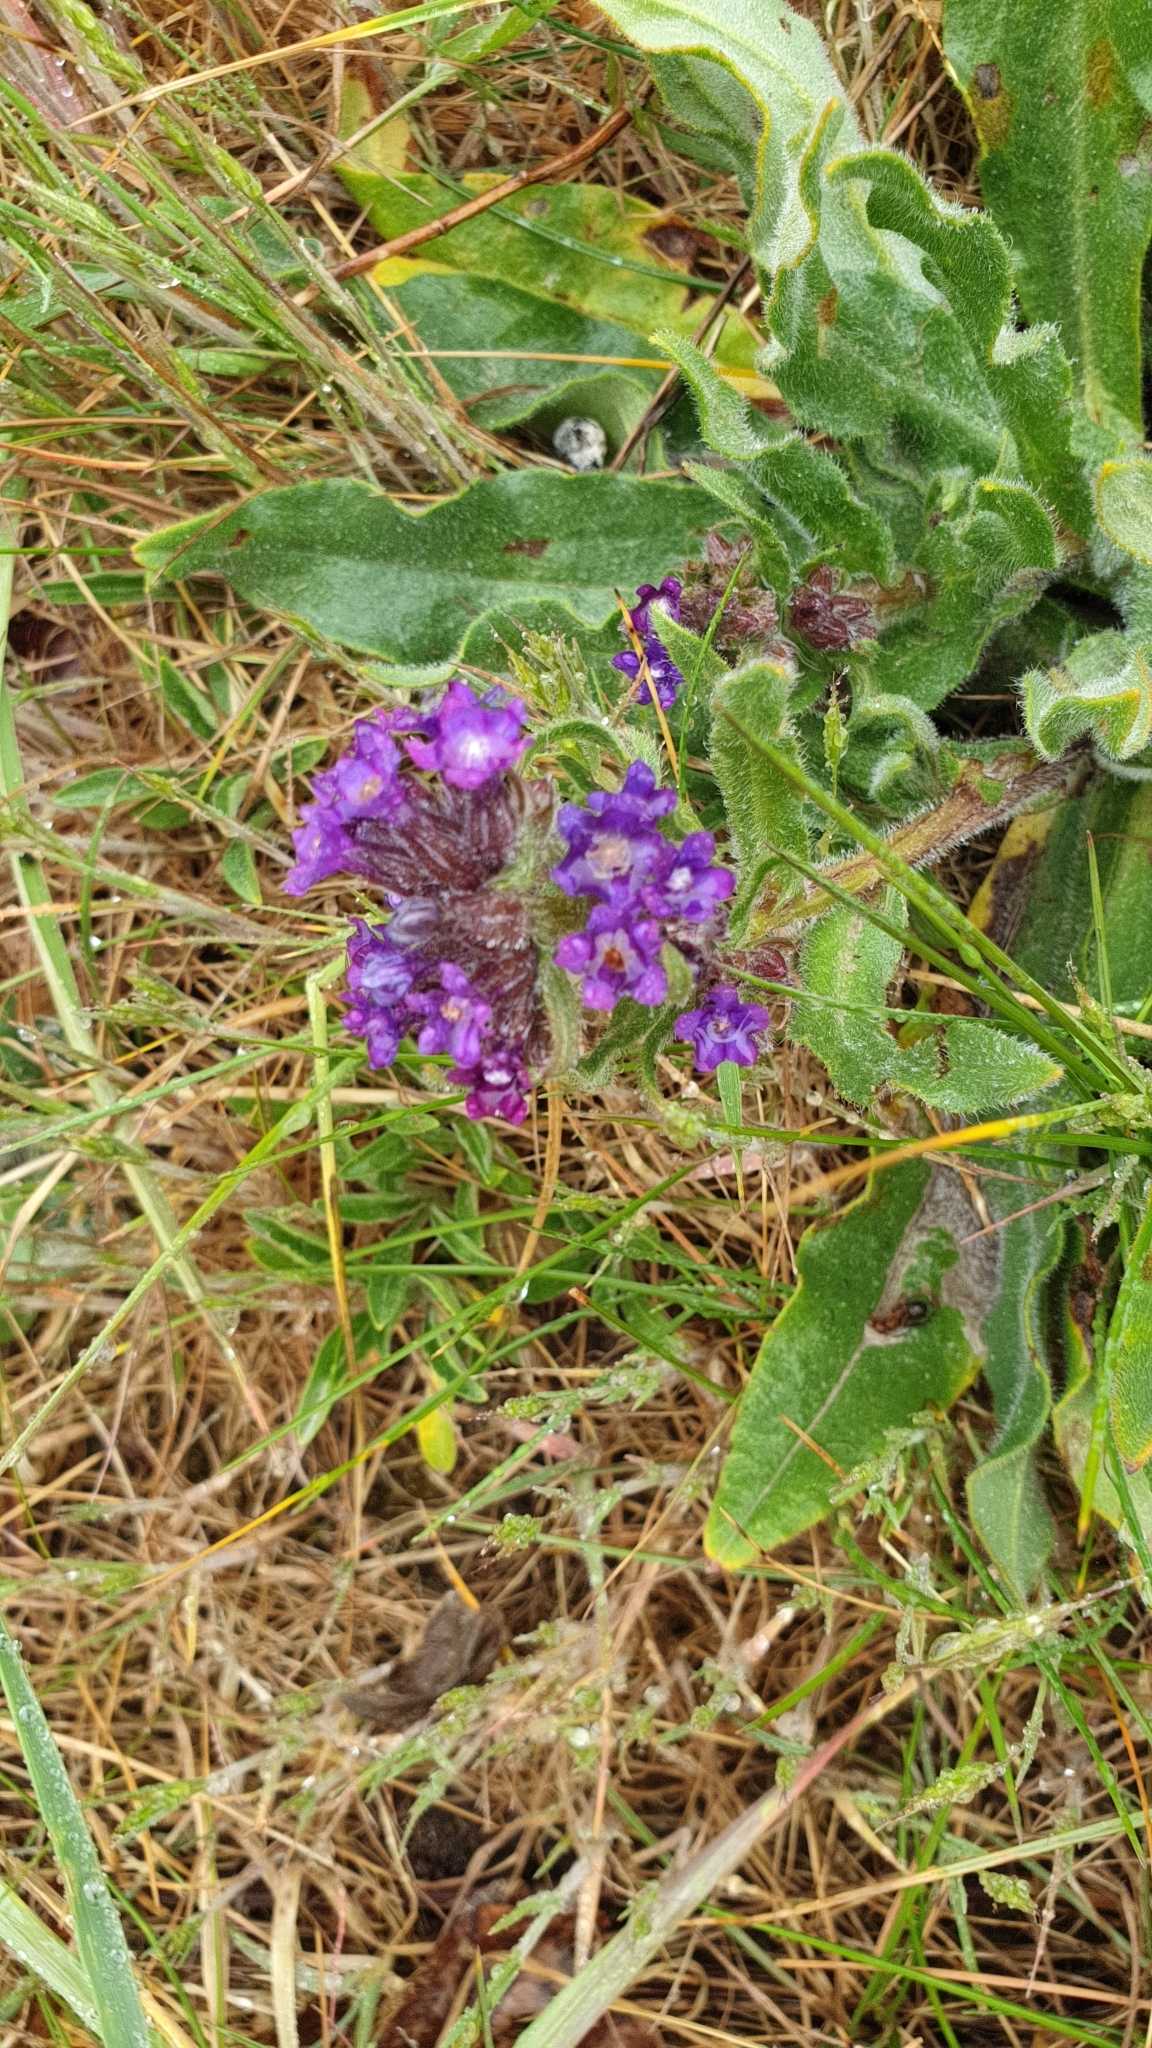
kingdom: Plantae
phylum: Tracheophyta
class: Magnoliopsida
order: Boraginales
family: Boraginaceae
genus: Anchusa
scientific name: Anchusa officinalis
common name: Alkanet
